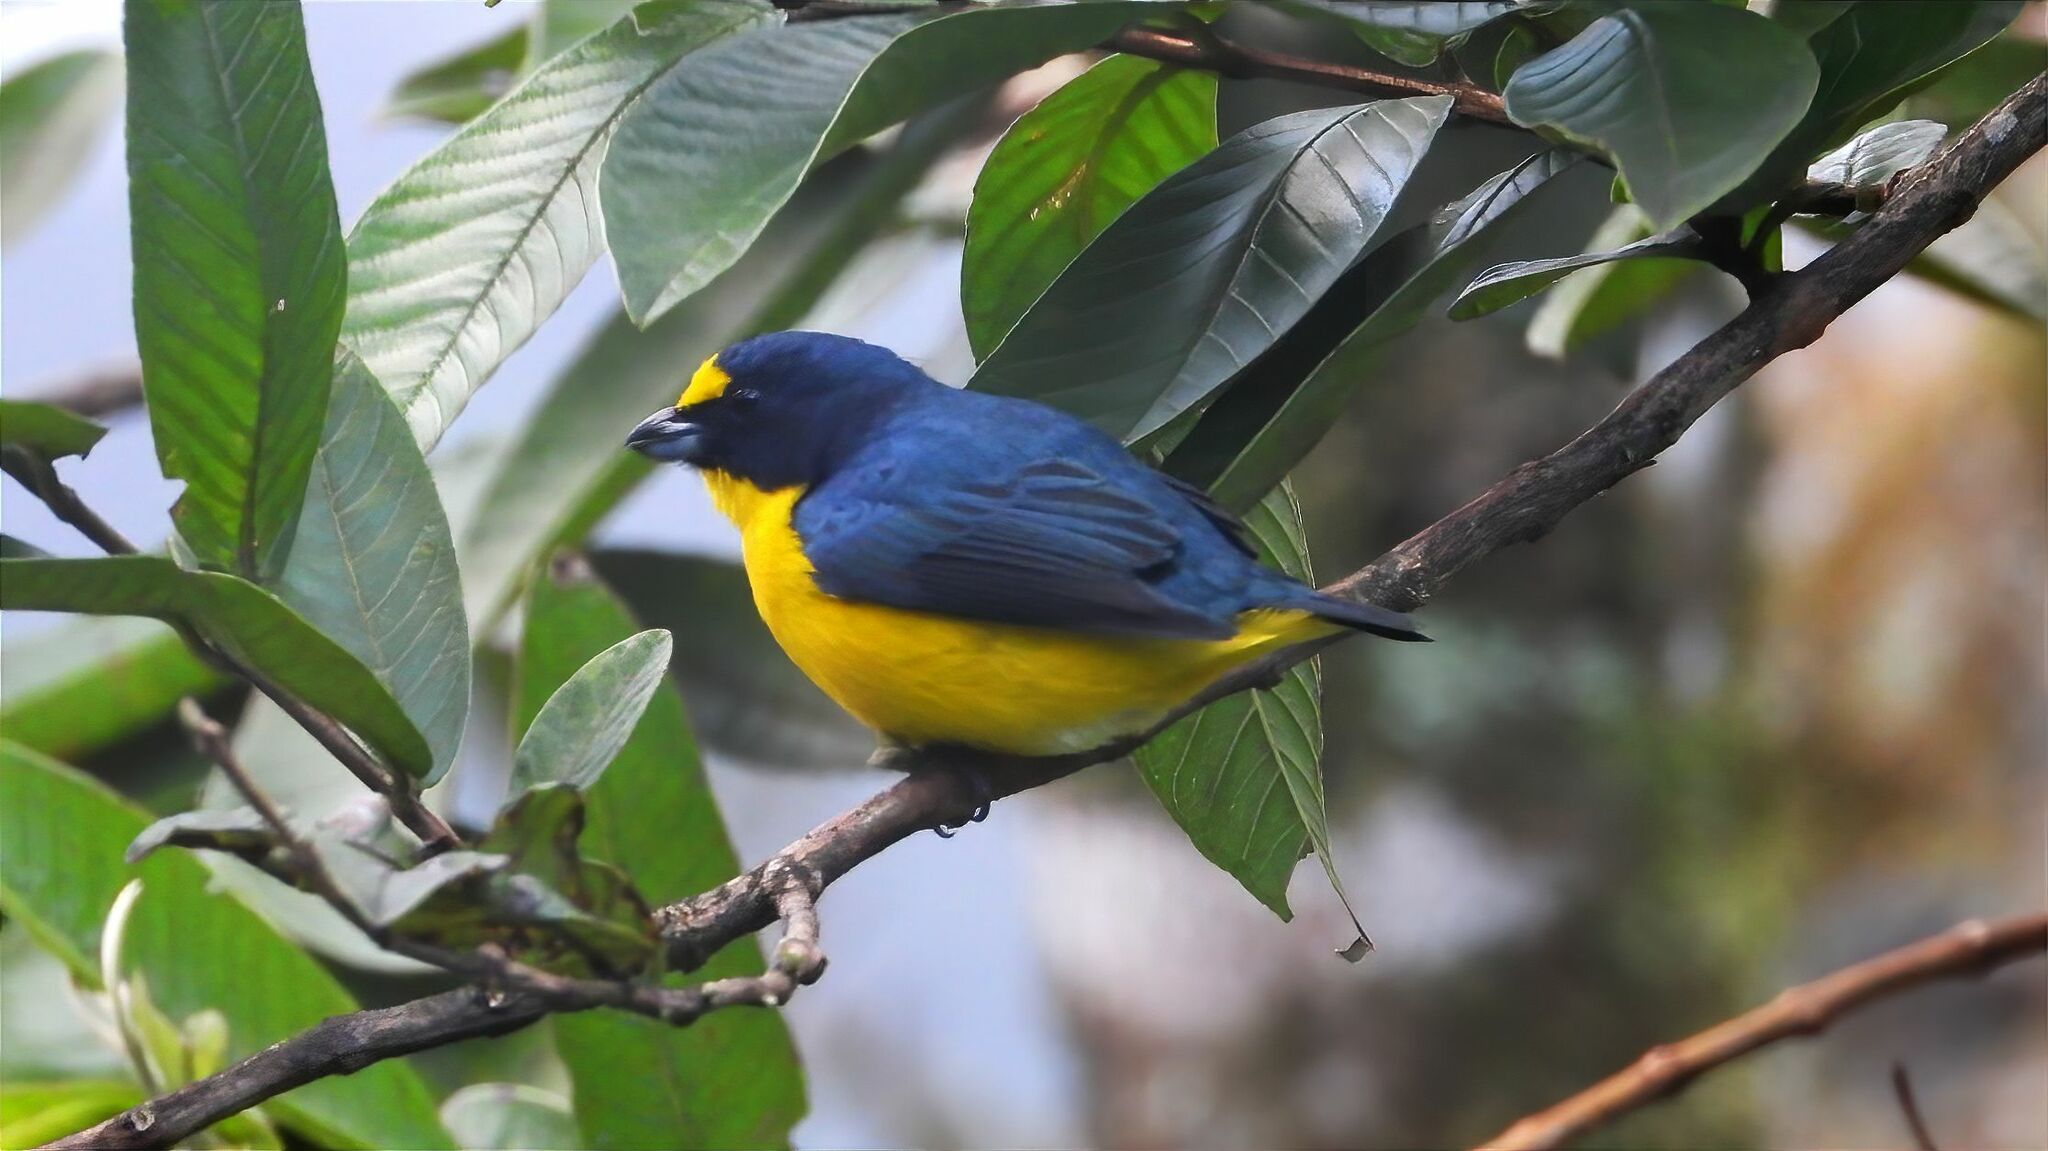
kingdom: Animalia
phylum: Chordata
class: Aves
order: Passeriformes
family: Fringillidae
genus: Euphonia
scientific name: Euphonia hirundinacea
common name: Yellow-throated euphonia
